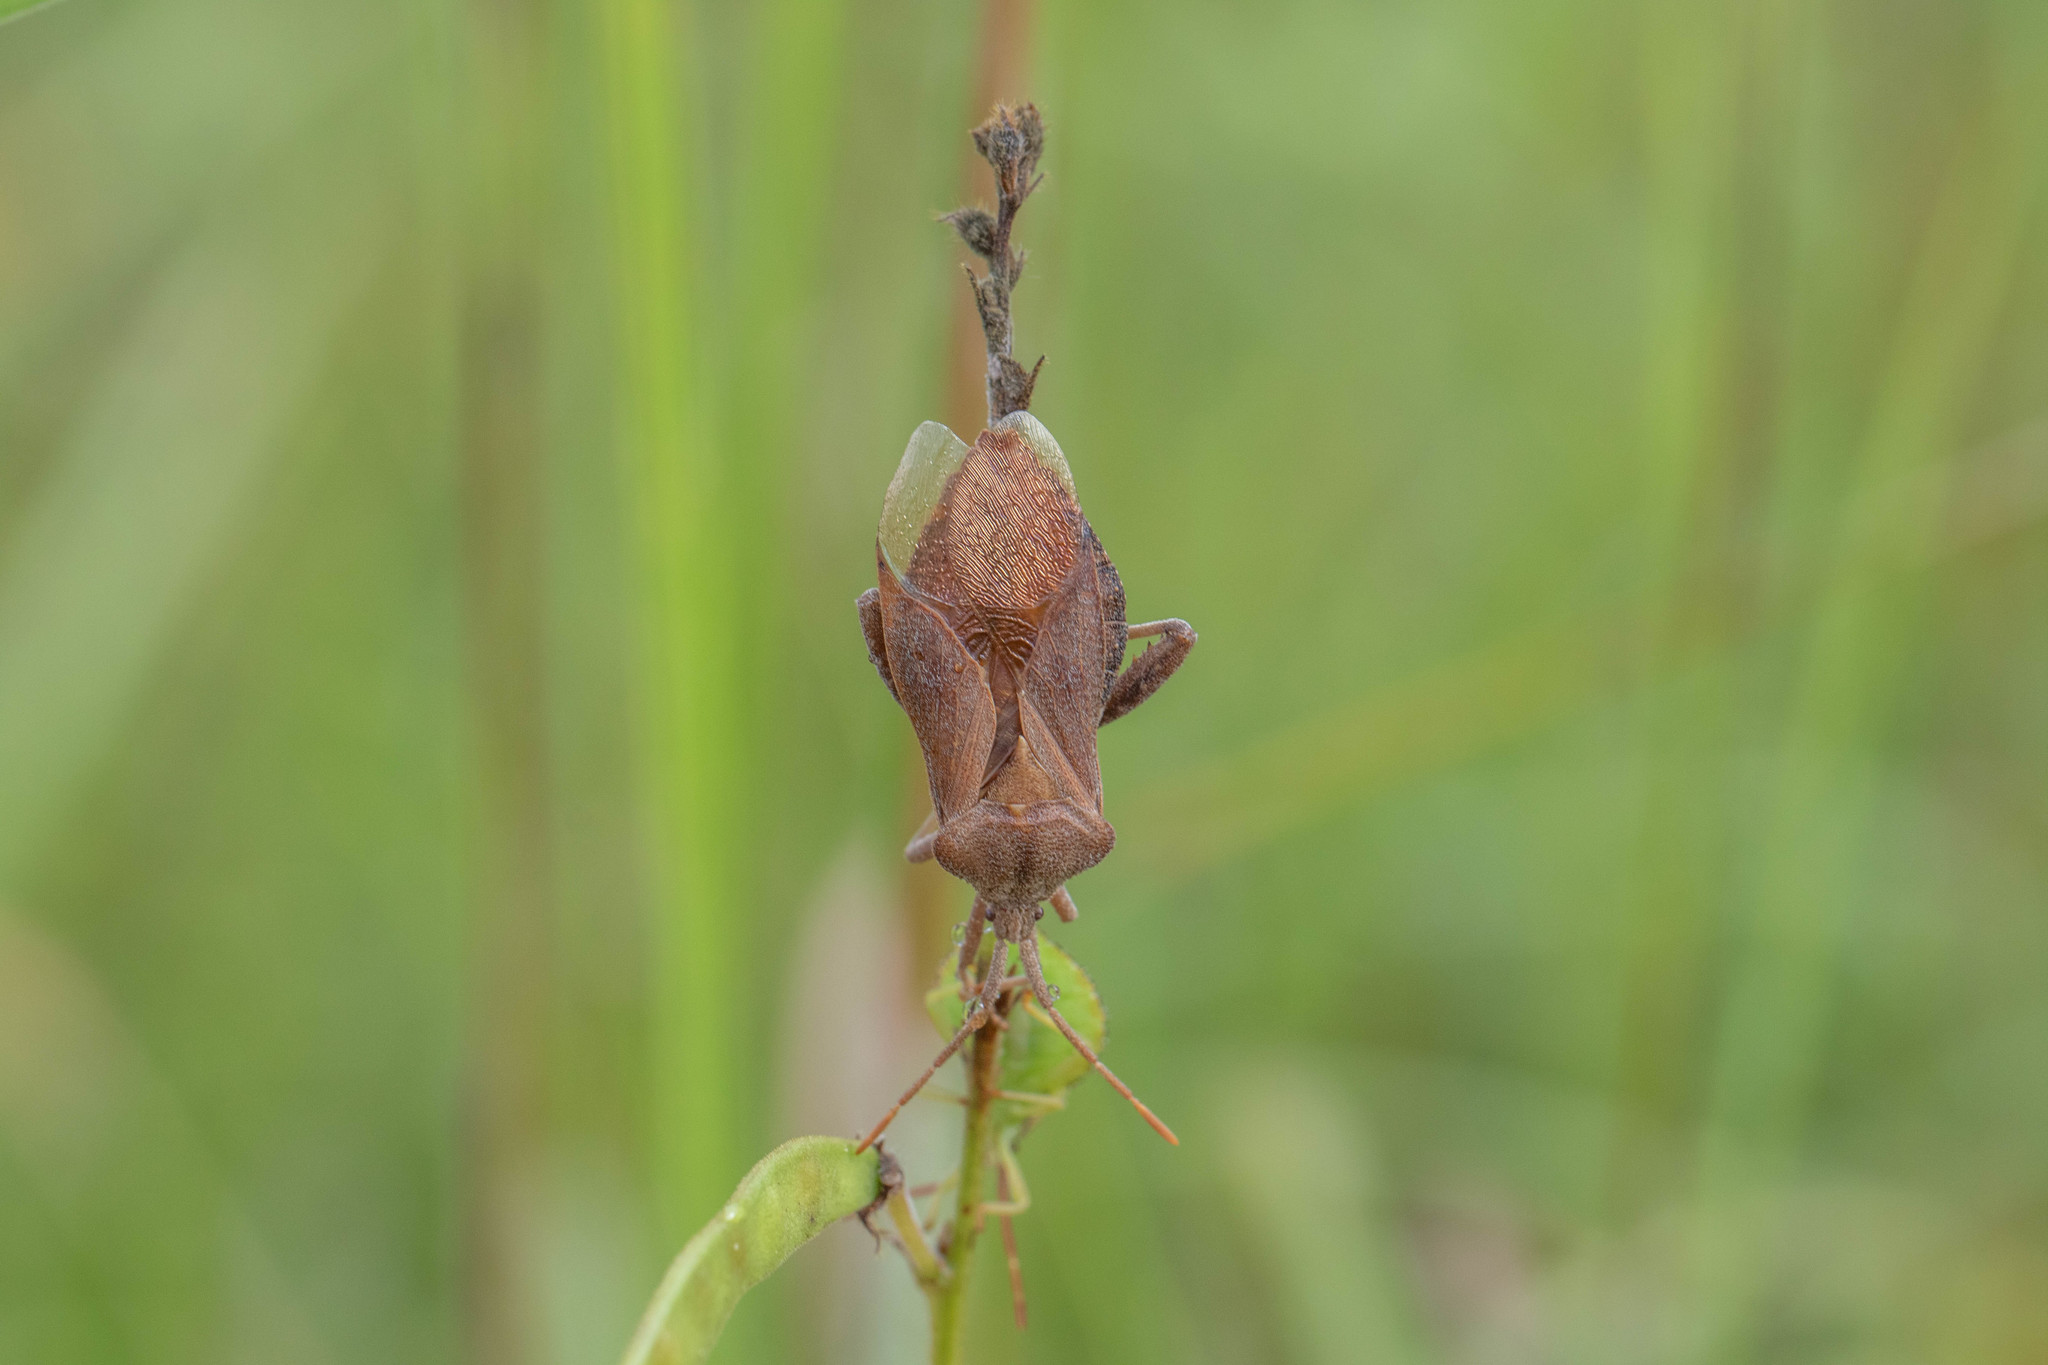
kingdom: Animalia
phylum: Arthropoda
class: Insecta
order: Hemiptera
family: Coreidae
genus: Piezogaster
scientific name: Piezogaster calcarator
